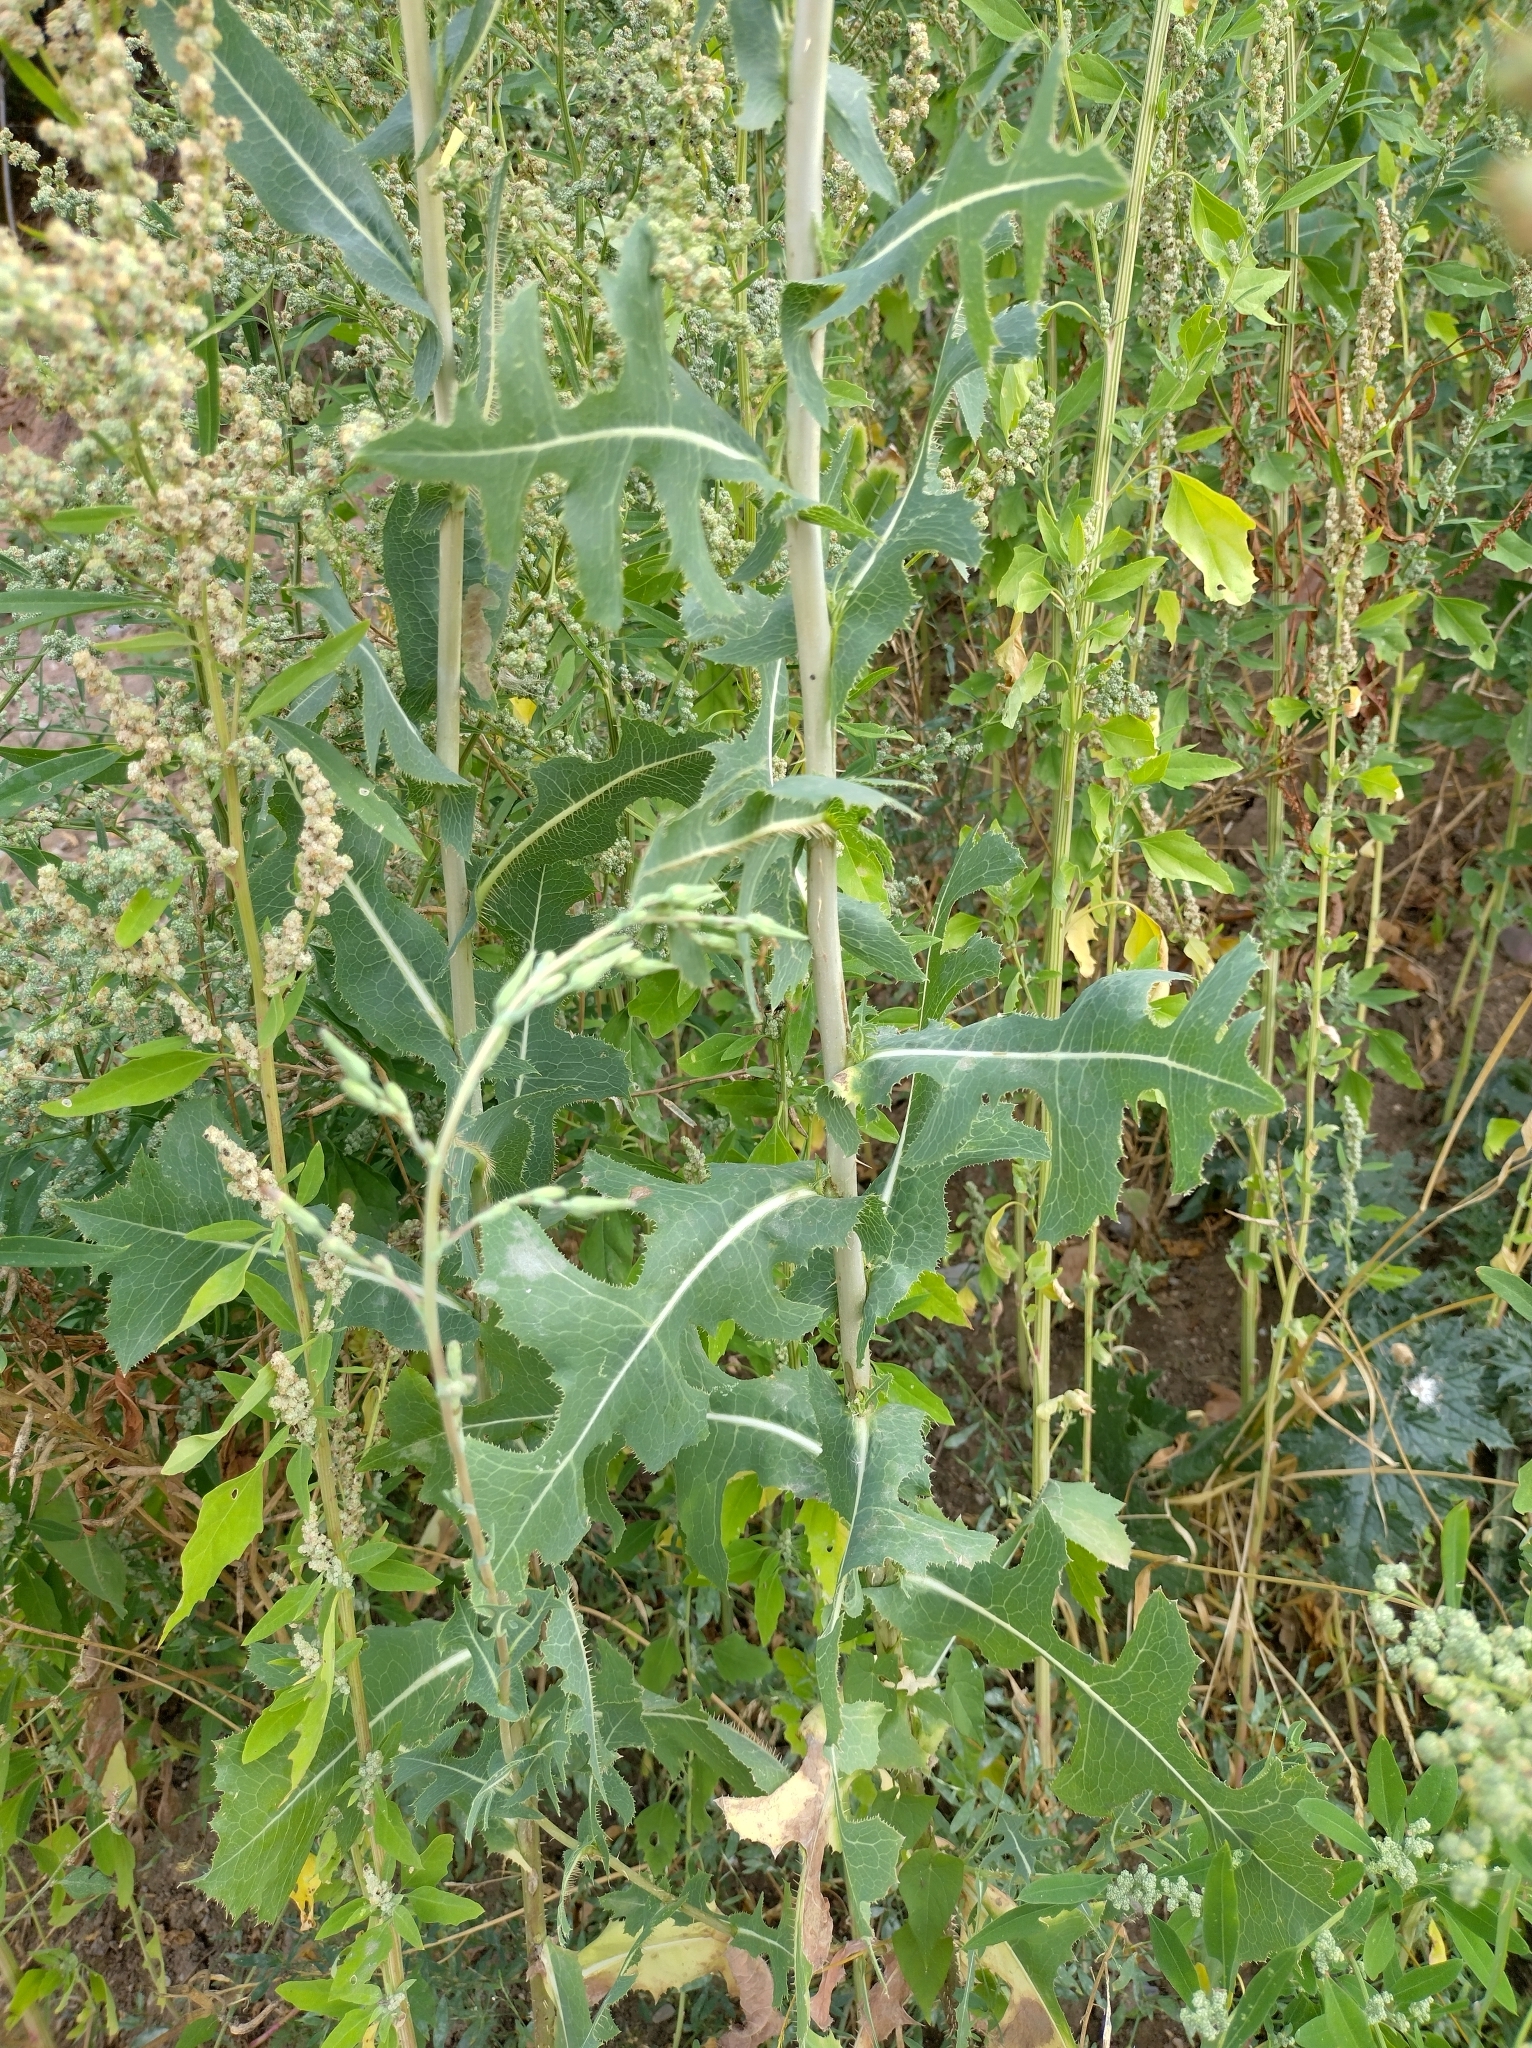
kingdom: Plantae
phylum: Tracheophyta
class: Magnoliopsida
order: Asterales
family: Asteraceae
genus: Lactuca
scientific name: Lactuca serriola
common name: Prickly lettuce
